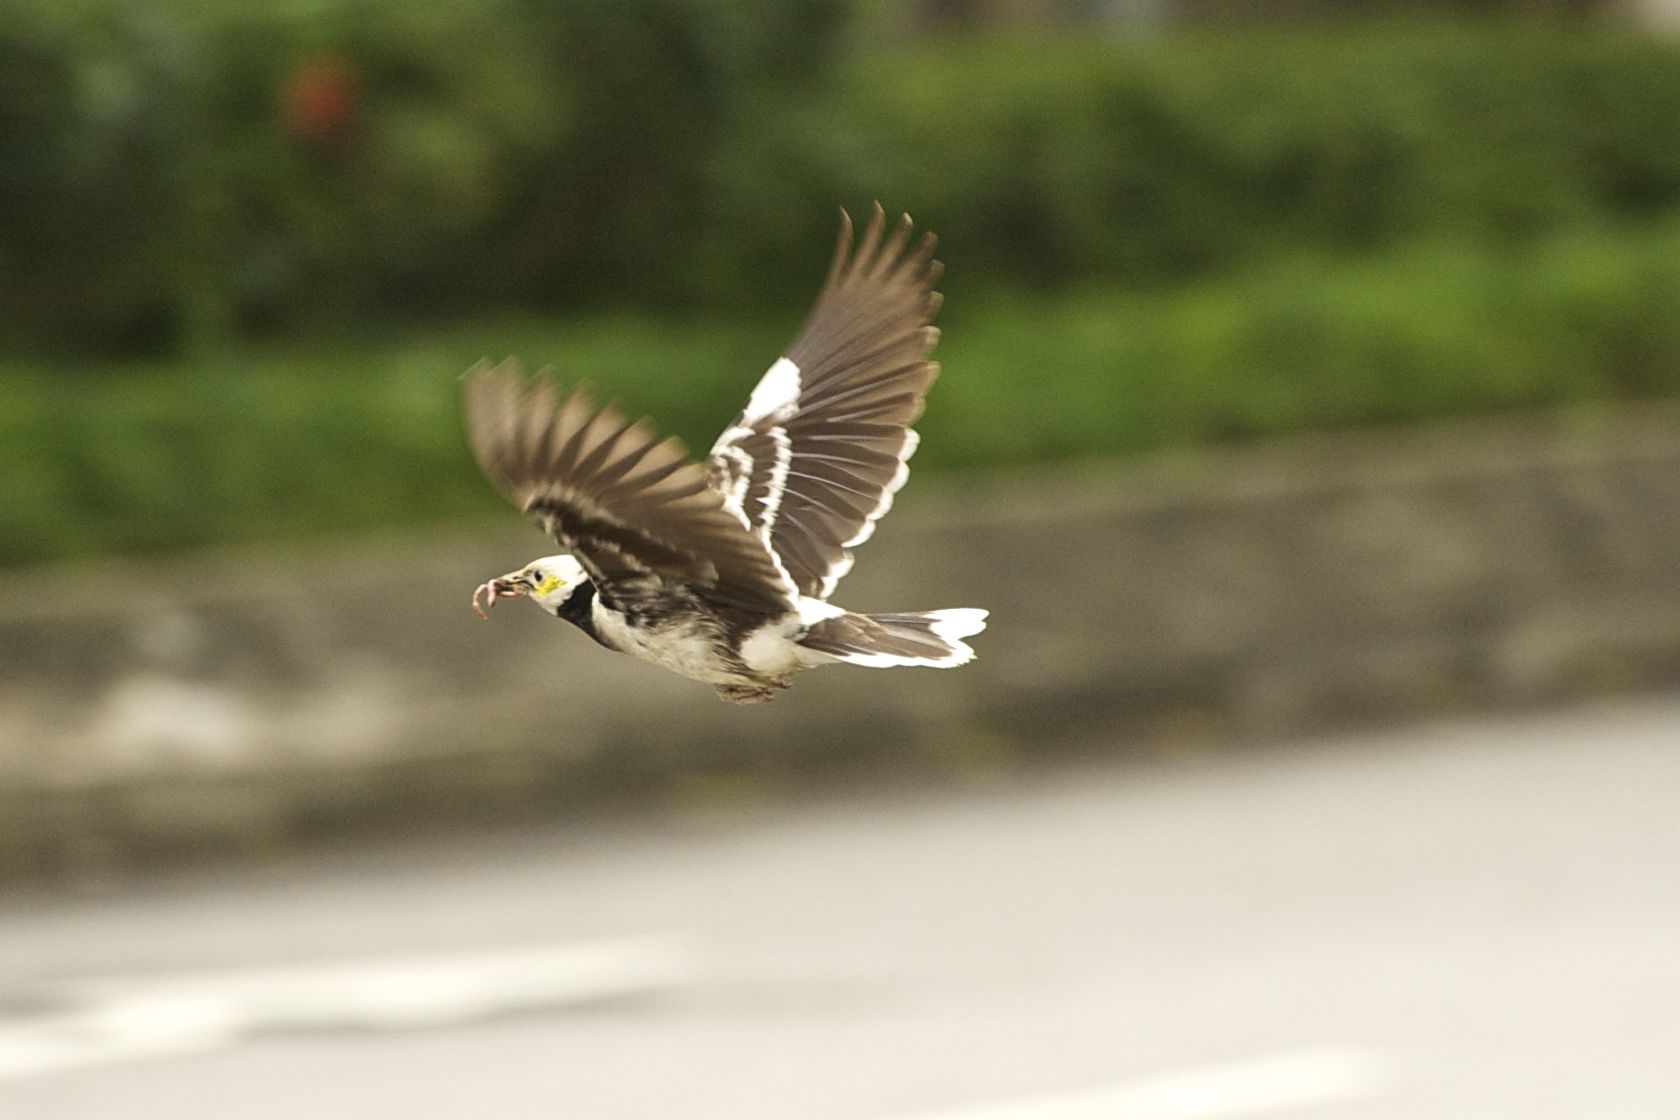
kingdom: Animalia
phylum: Chordata
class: Aves
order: Passeriformes
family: Sturnidae
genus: Gracupica
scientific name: Gracupica nigricollis
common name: Black-collared starling
